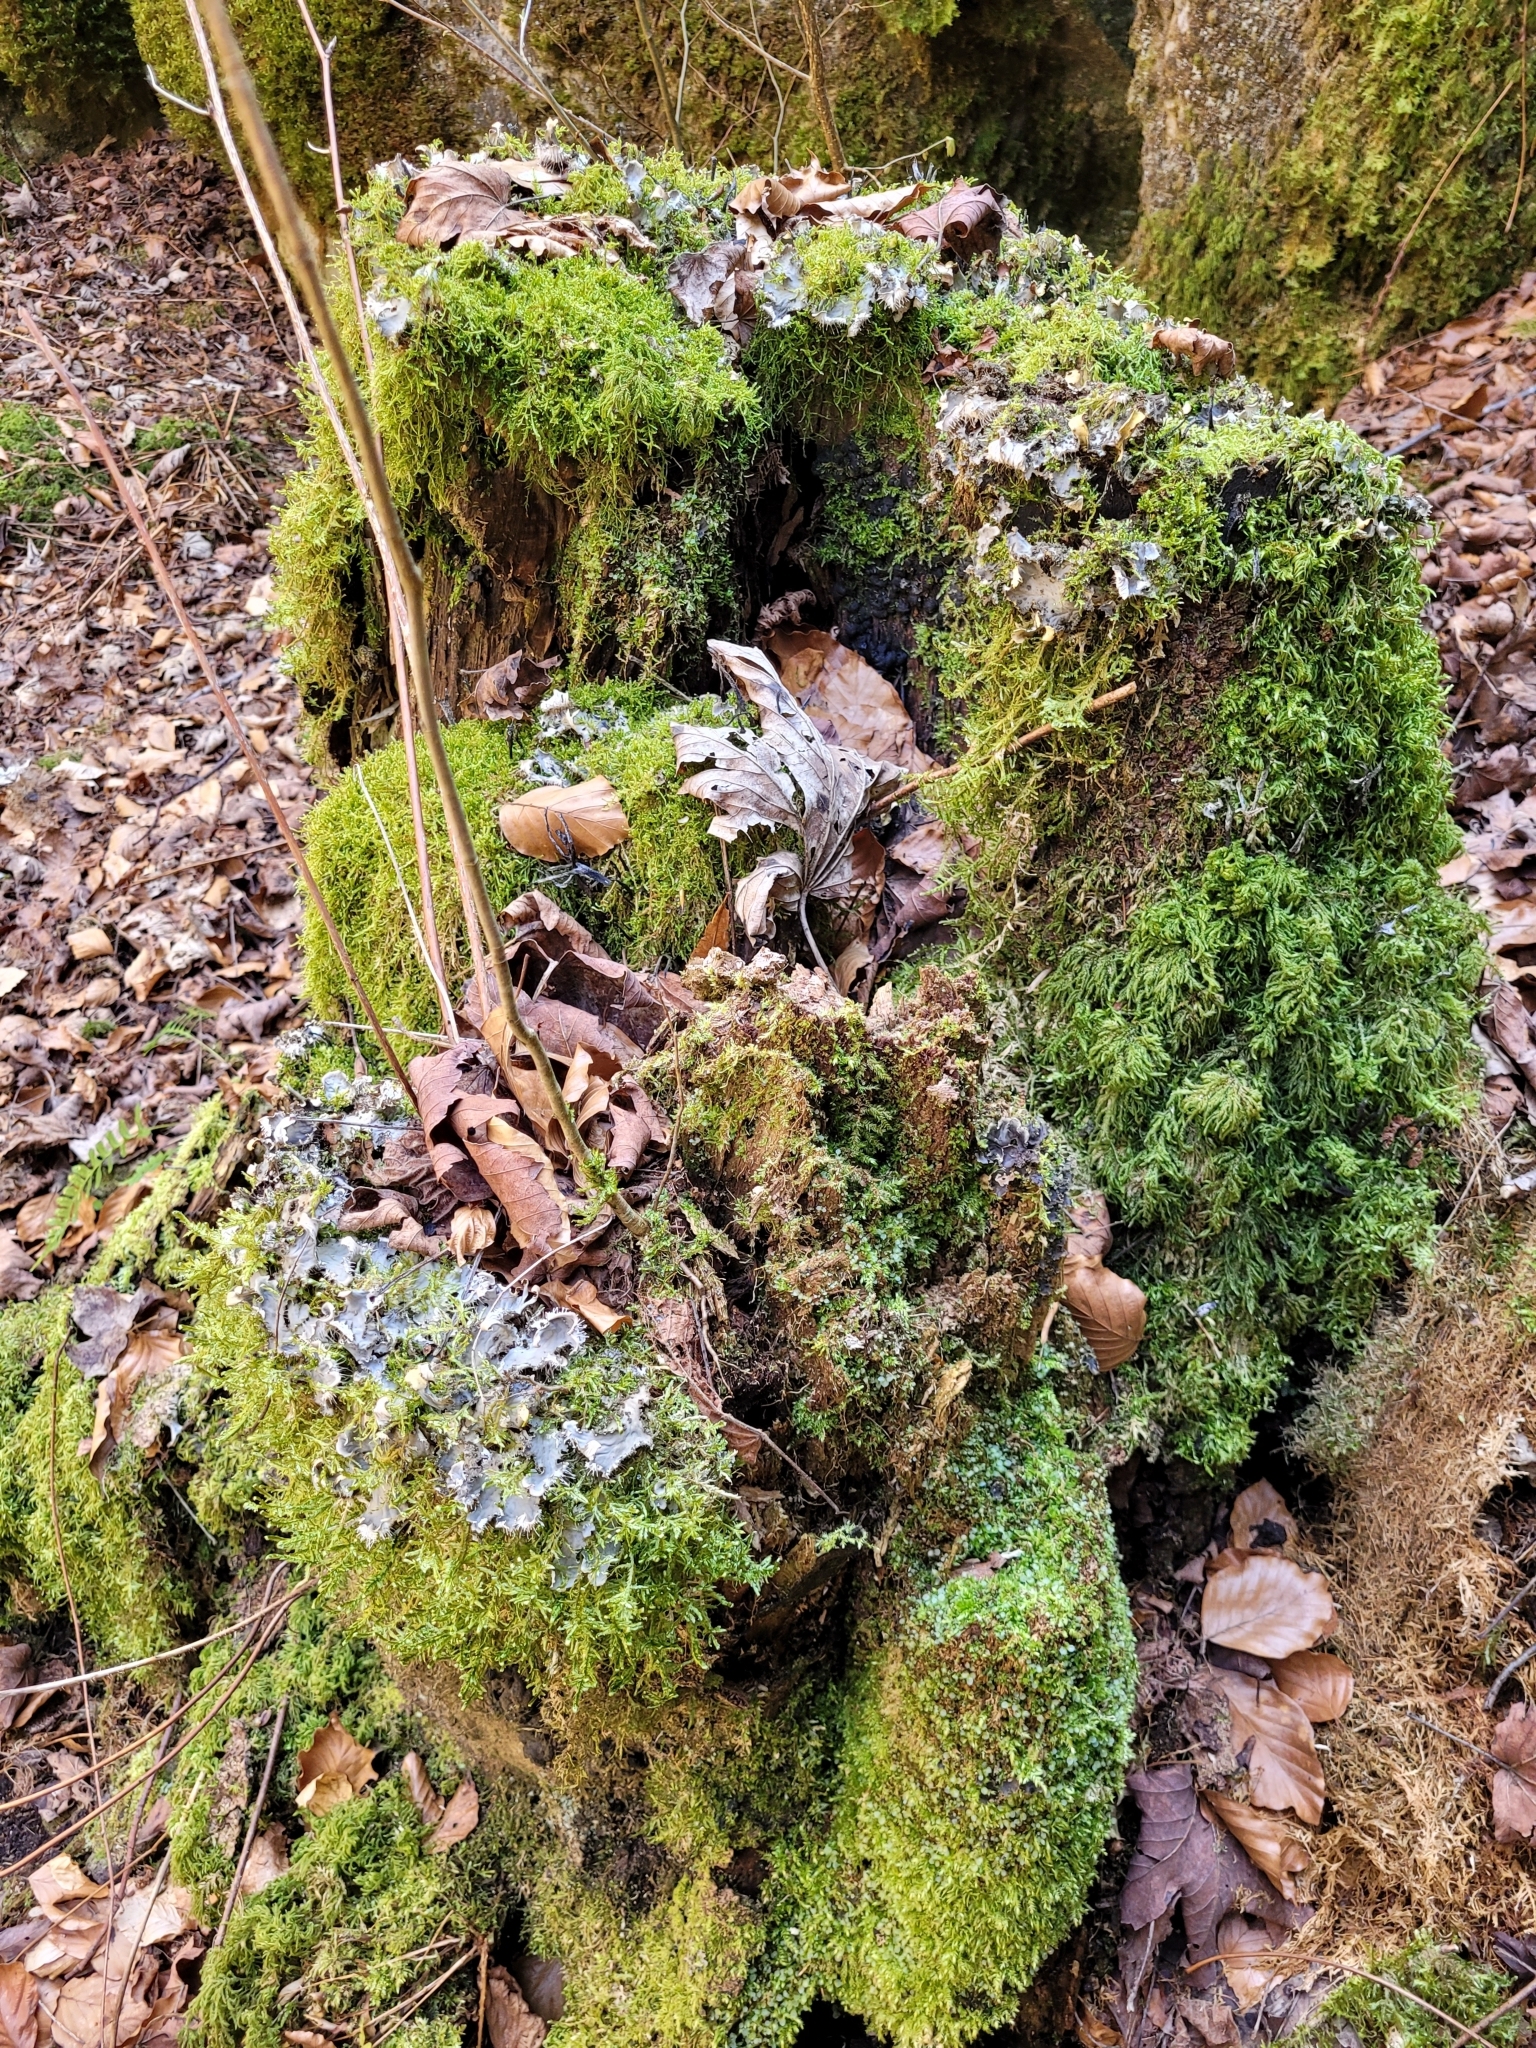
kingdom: Fungi
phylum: Ascomycota
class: Lecanoromycetes
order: Peltigerales
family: Peltigeraceae
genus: Peltigera
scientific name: Peltigera praetextata
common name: Scaly dog-lichen
